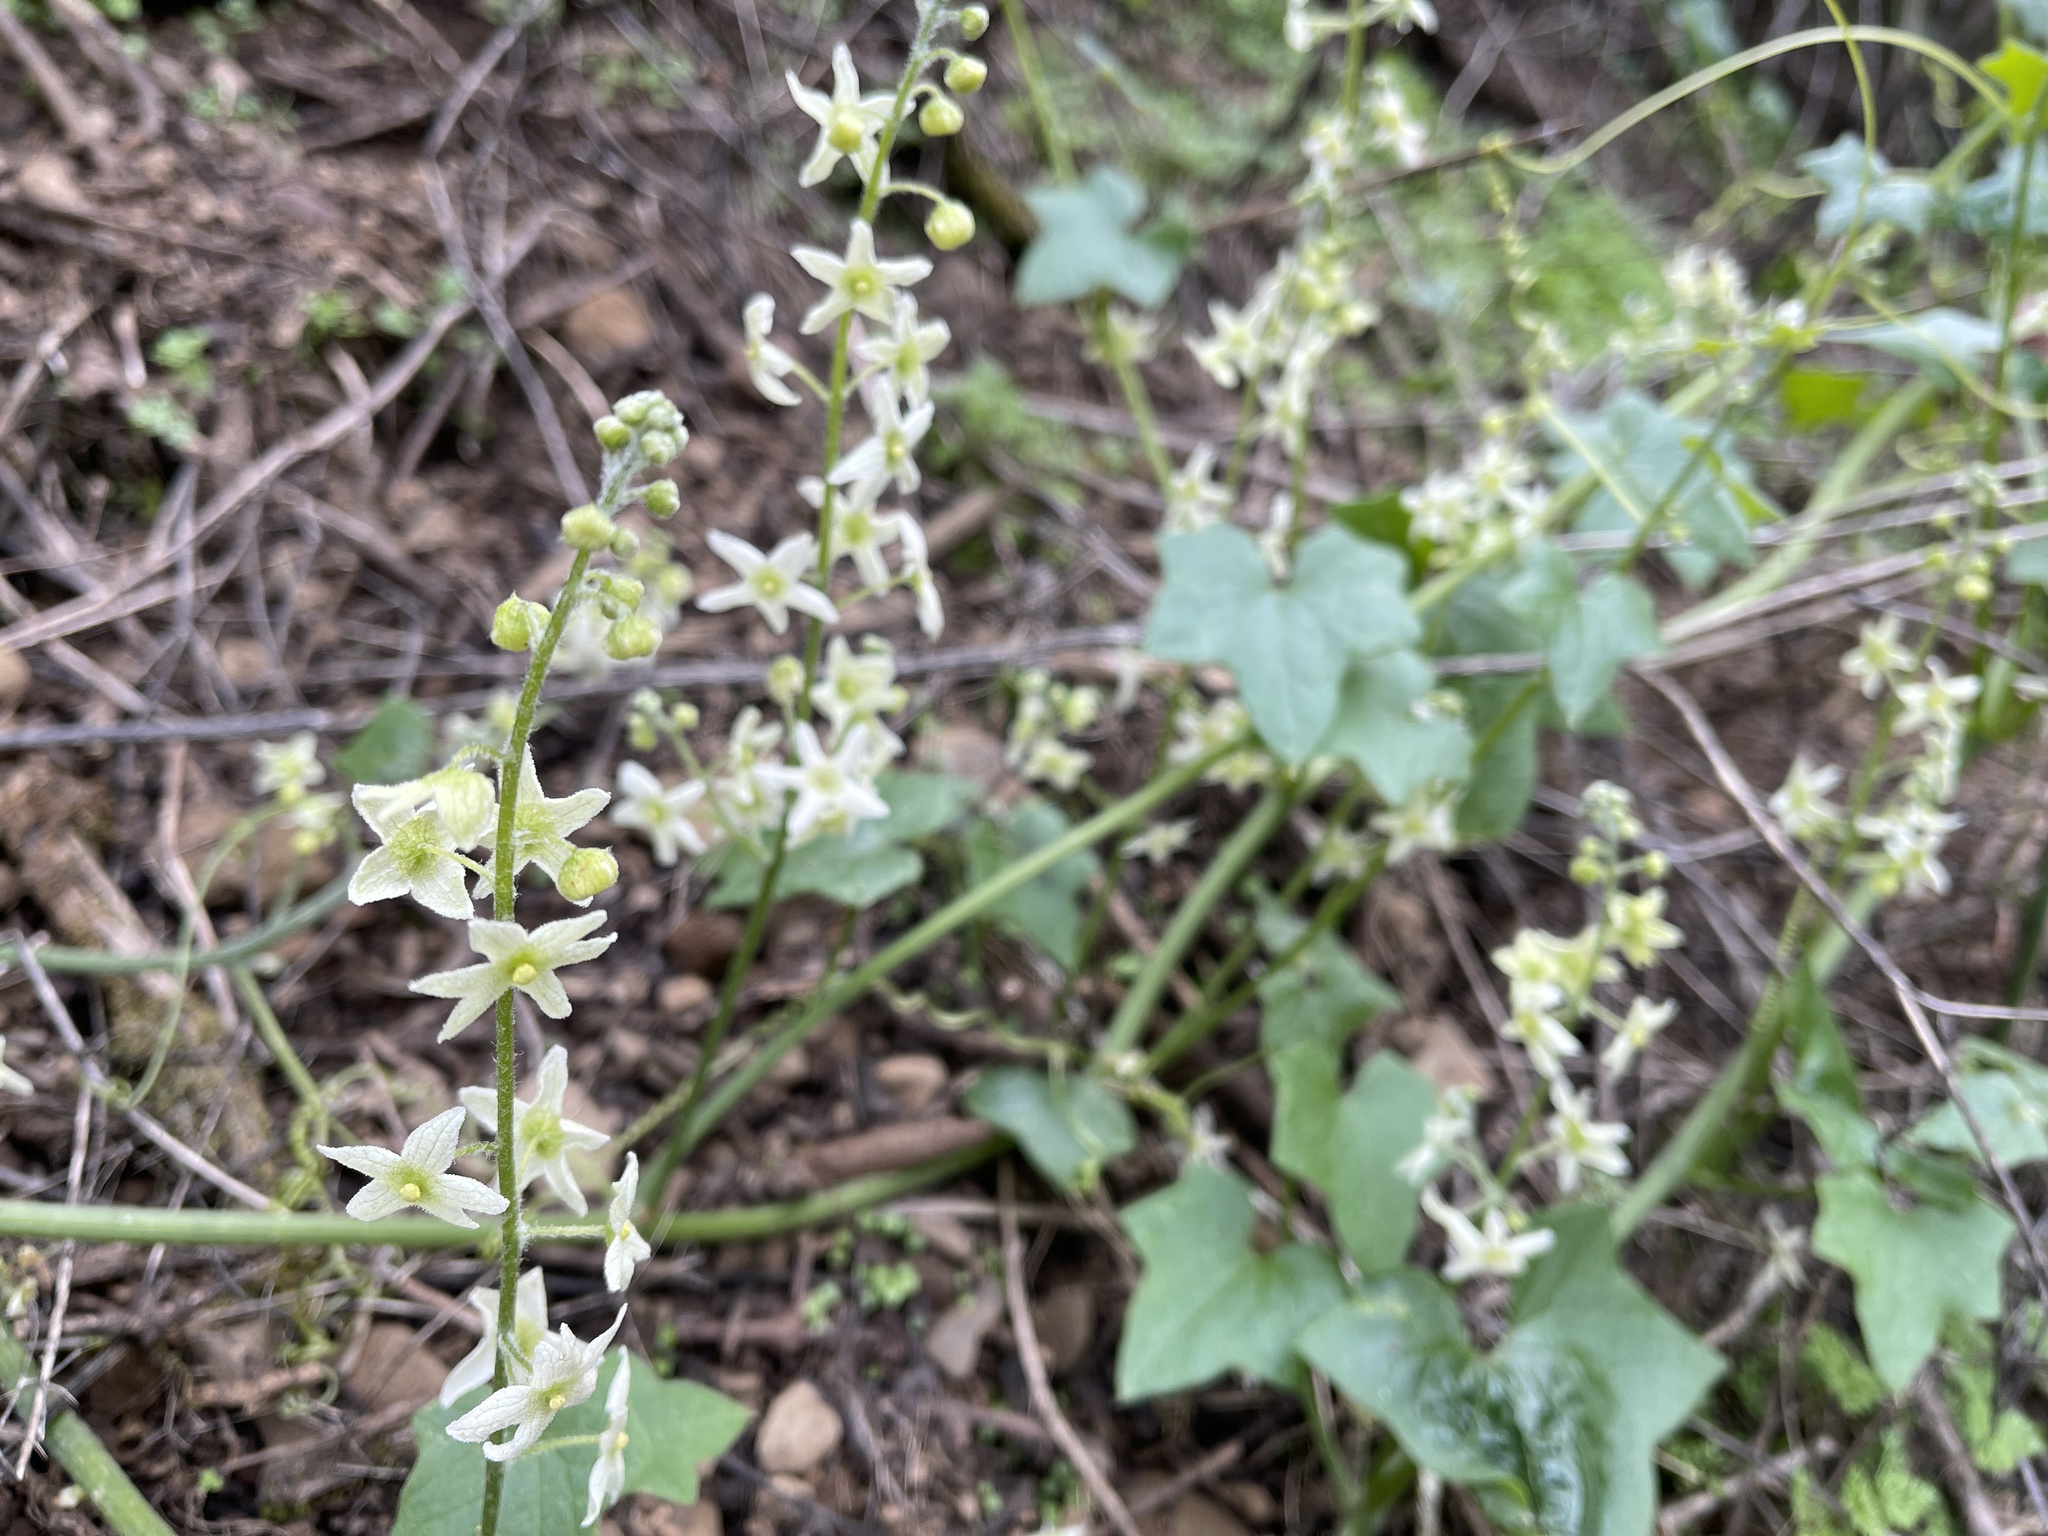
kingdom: Plantae
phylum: Tracheophyta
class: Magnoliopsida
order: Cucurbitales
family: Cucurbitaceae
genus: Marah
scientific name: Marah fabacea
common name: California manroot
